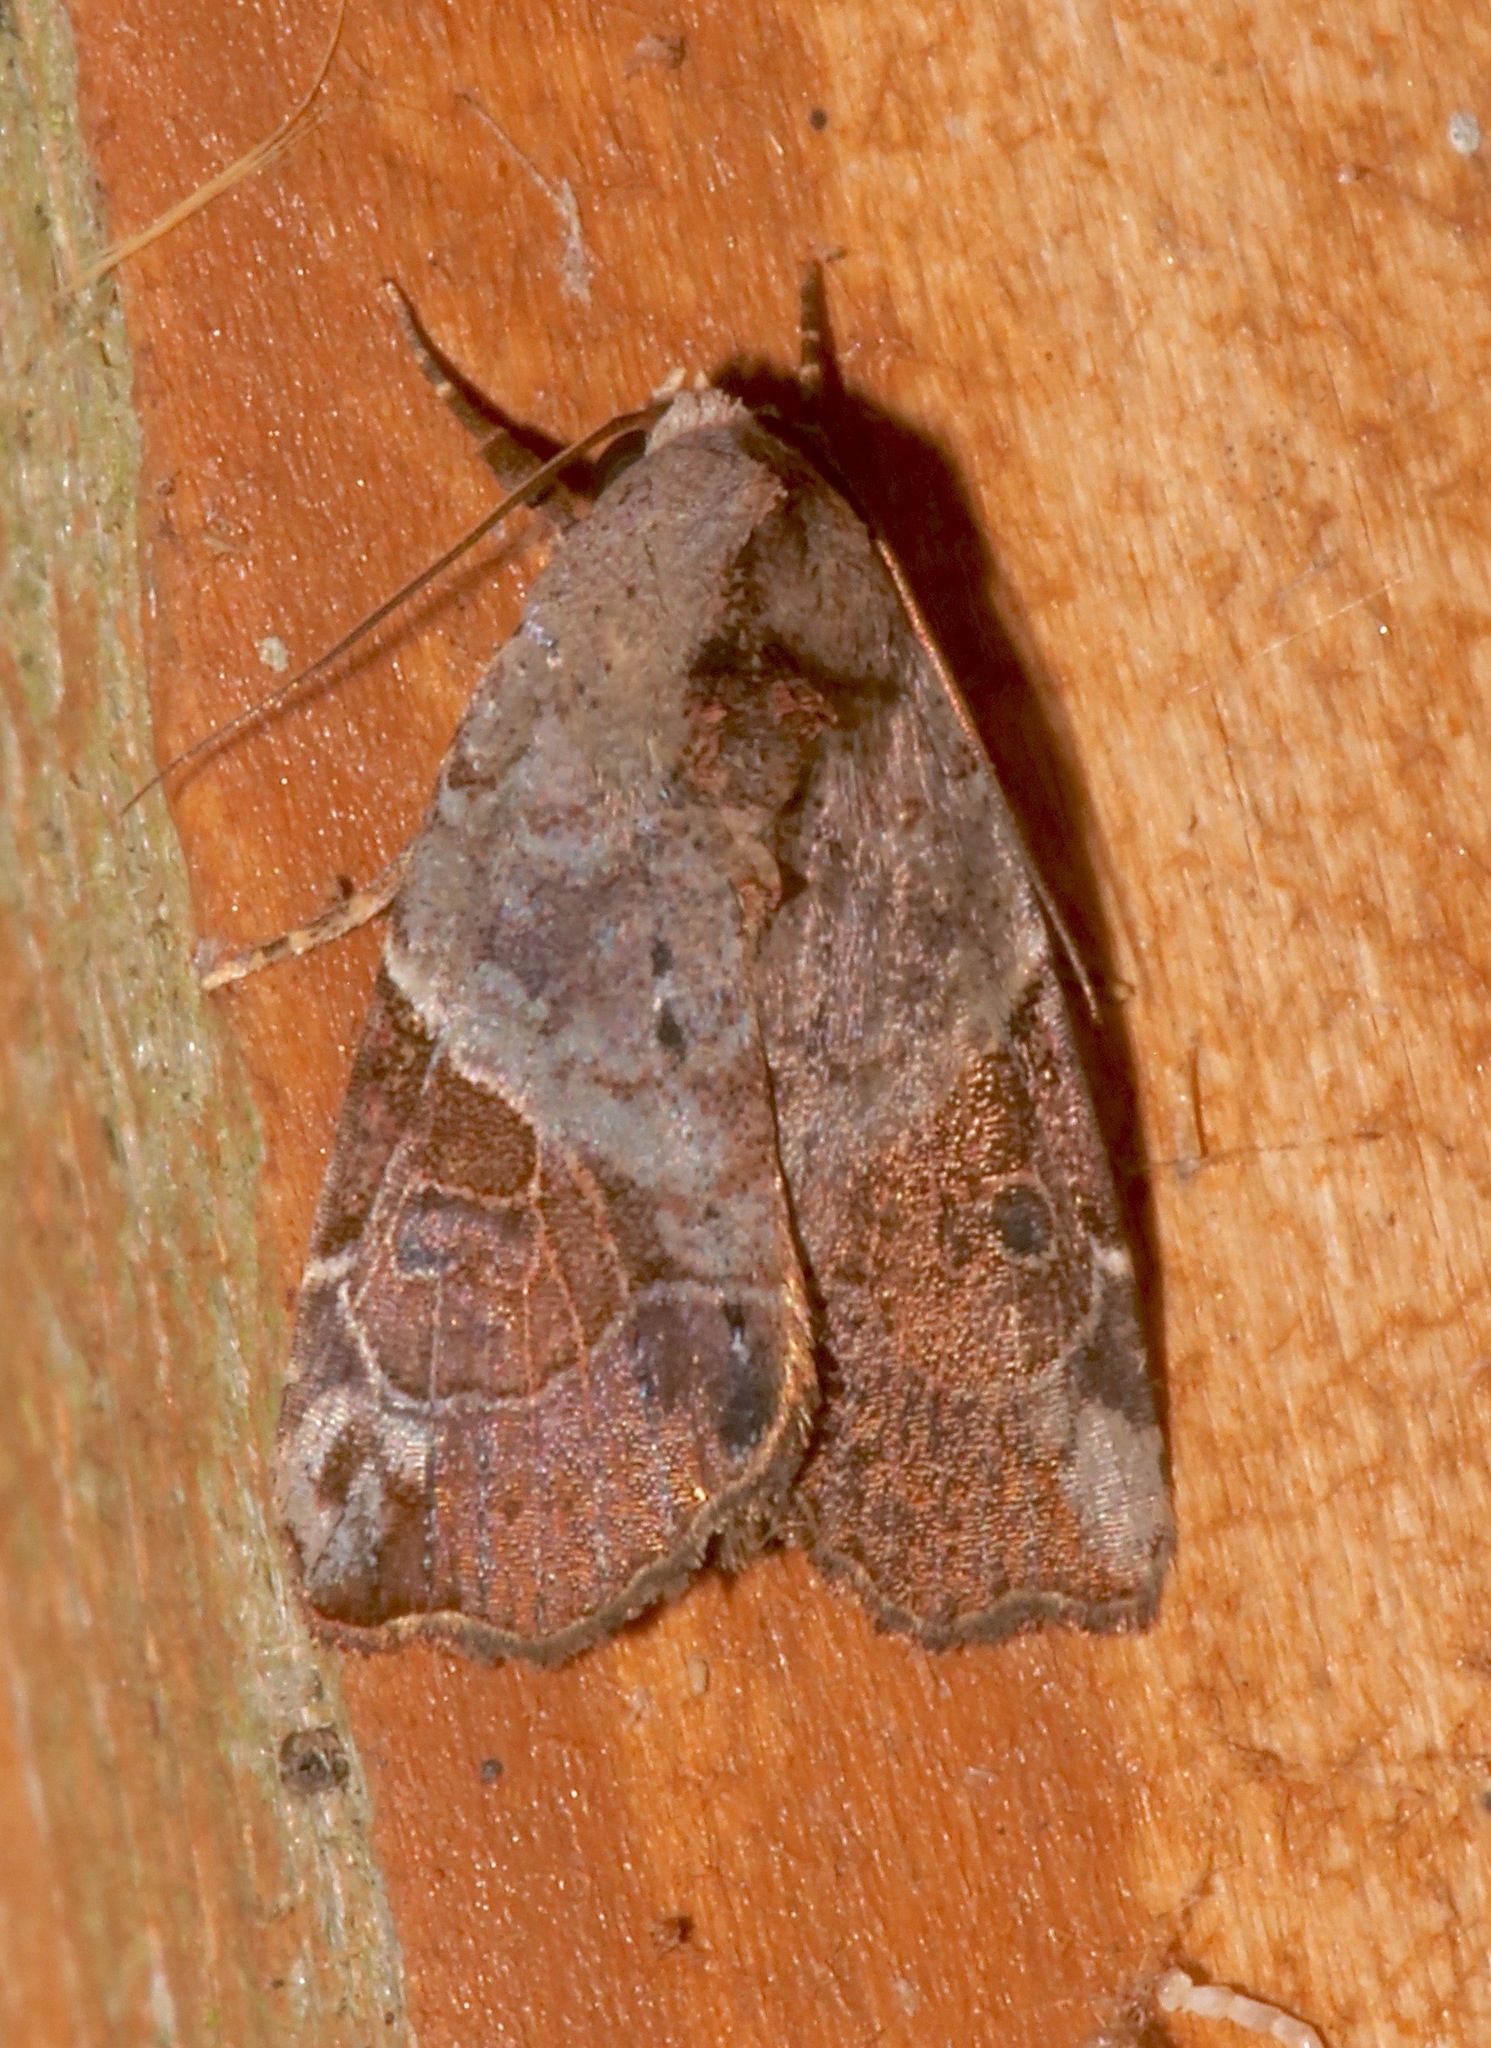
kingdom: Animalia
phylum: Arthropoda
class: Insecta
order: Lepidoptera
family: Noctuidae
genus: Gonodes
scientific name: Gonodes liquida
